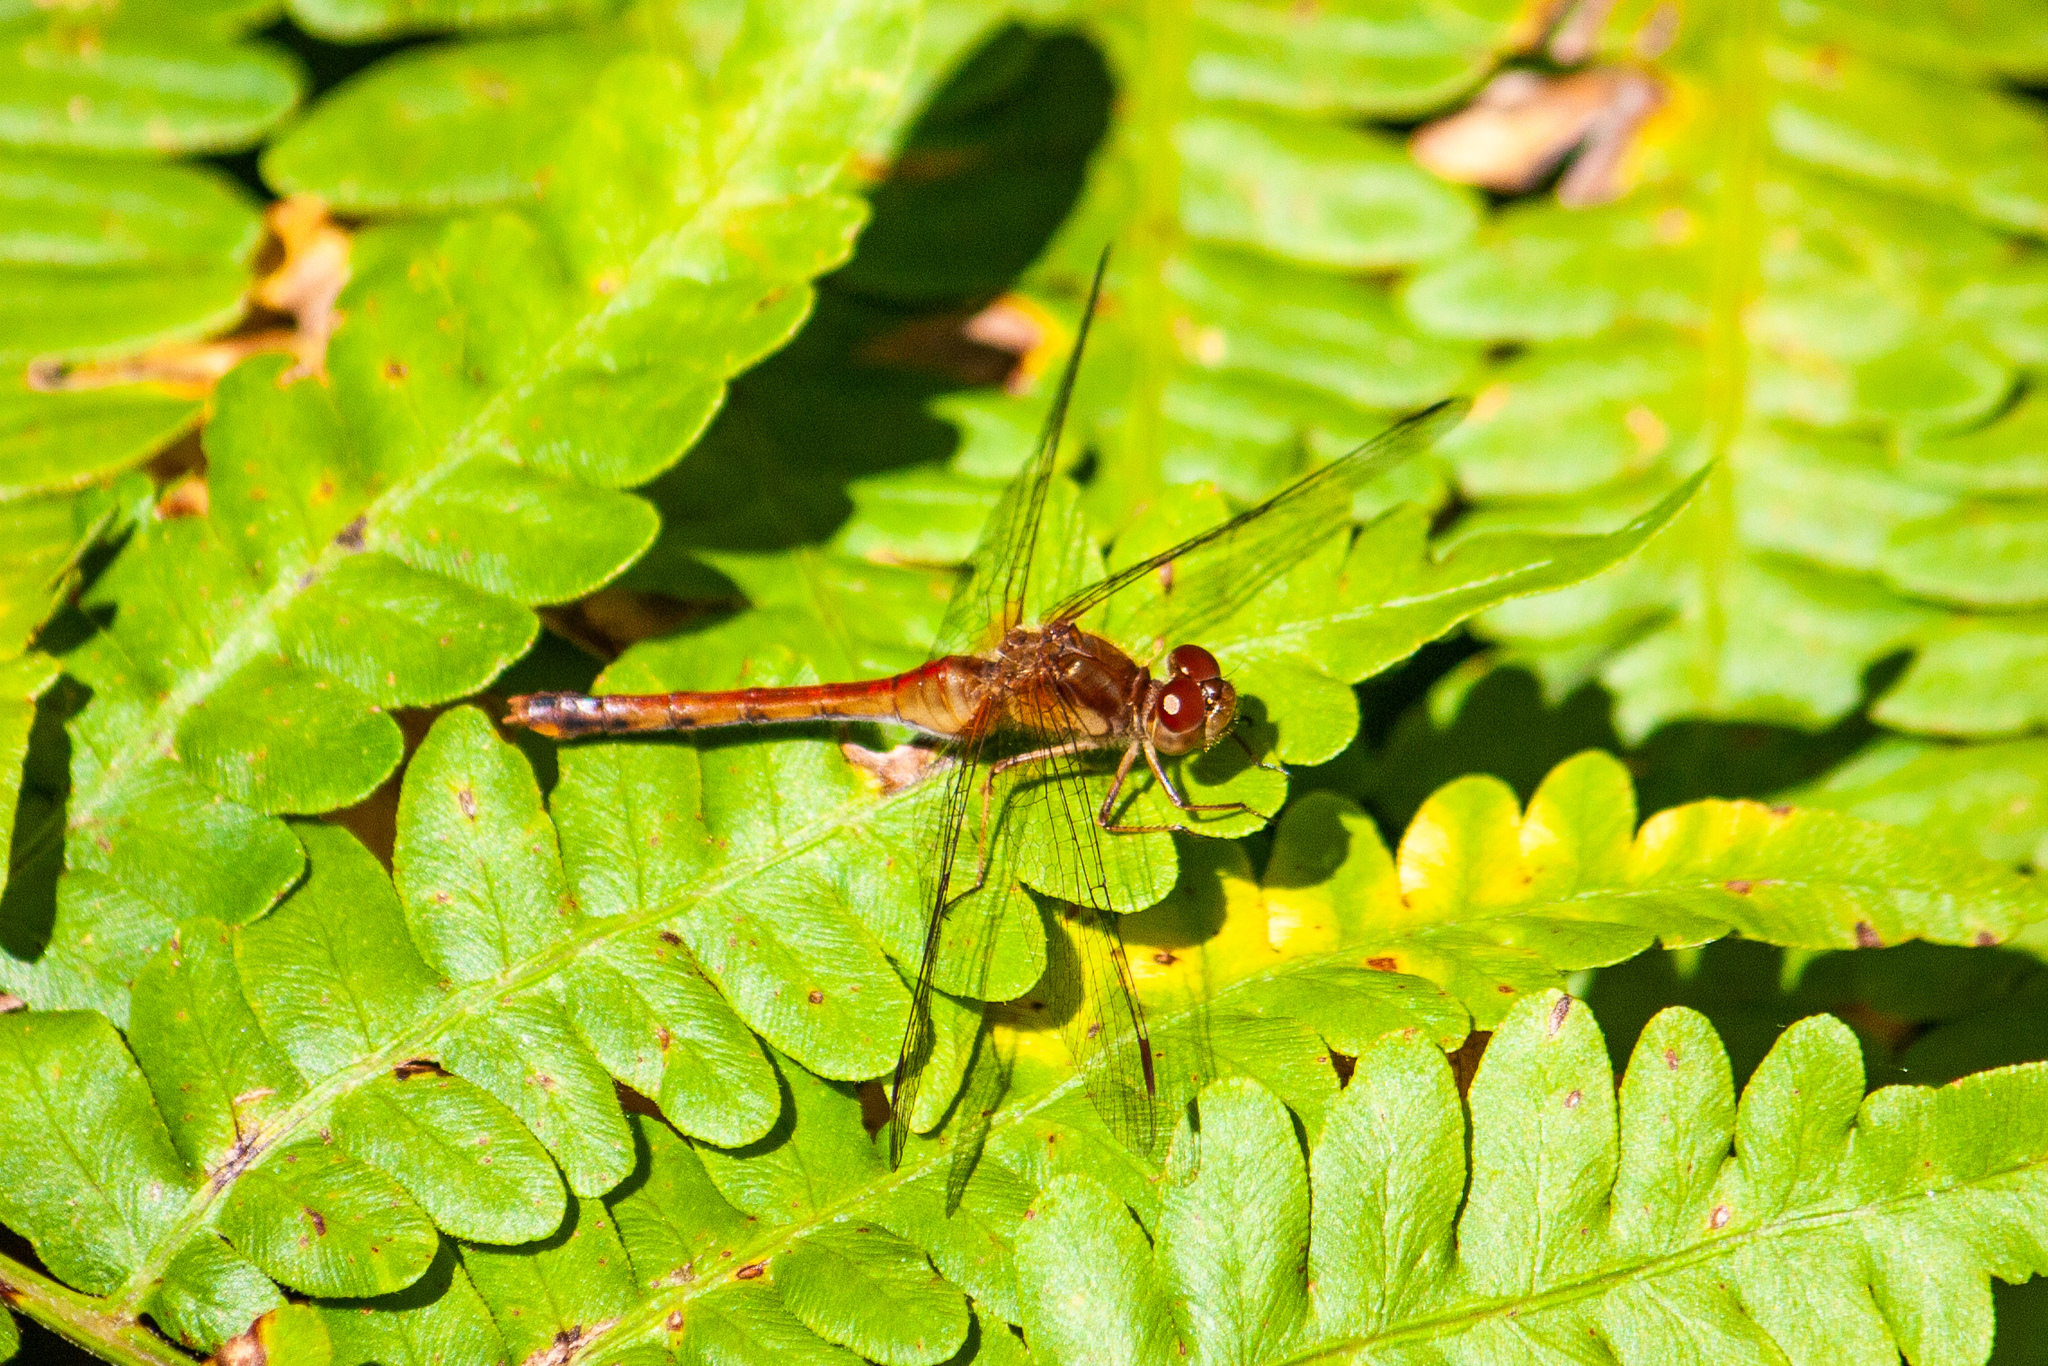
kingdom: Animalia
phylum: Arthropoda
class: Insecta
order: Odonata
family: Libellulidae
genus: Sympetrum
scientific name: Sympetrum vicinum
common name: Autumn meadowhawk
